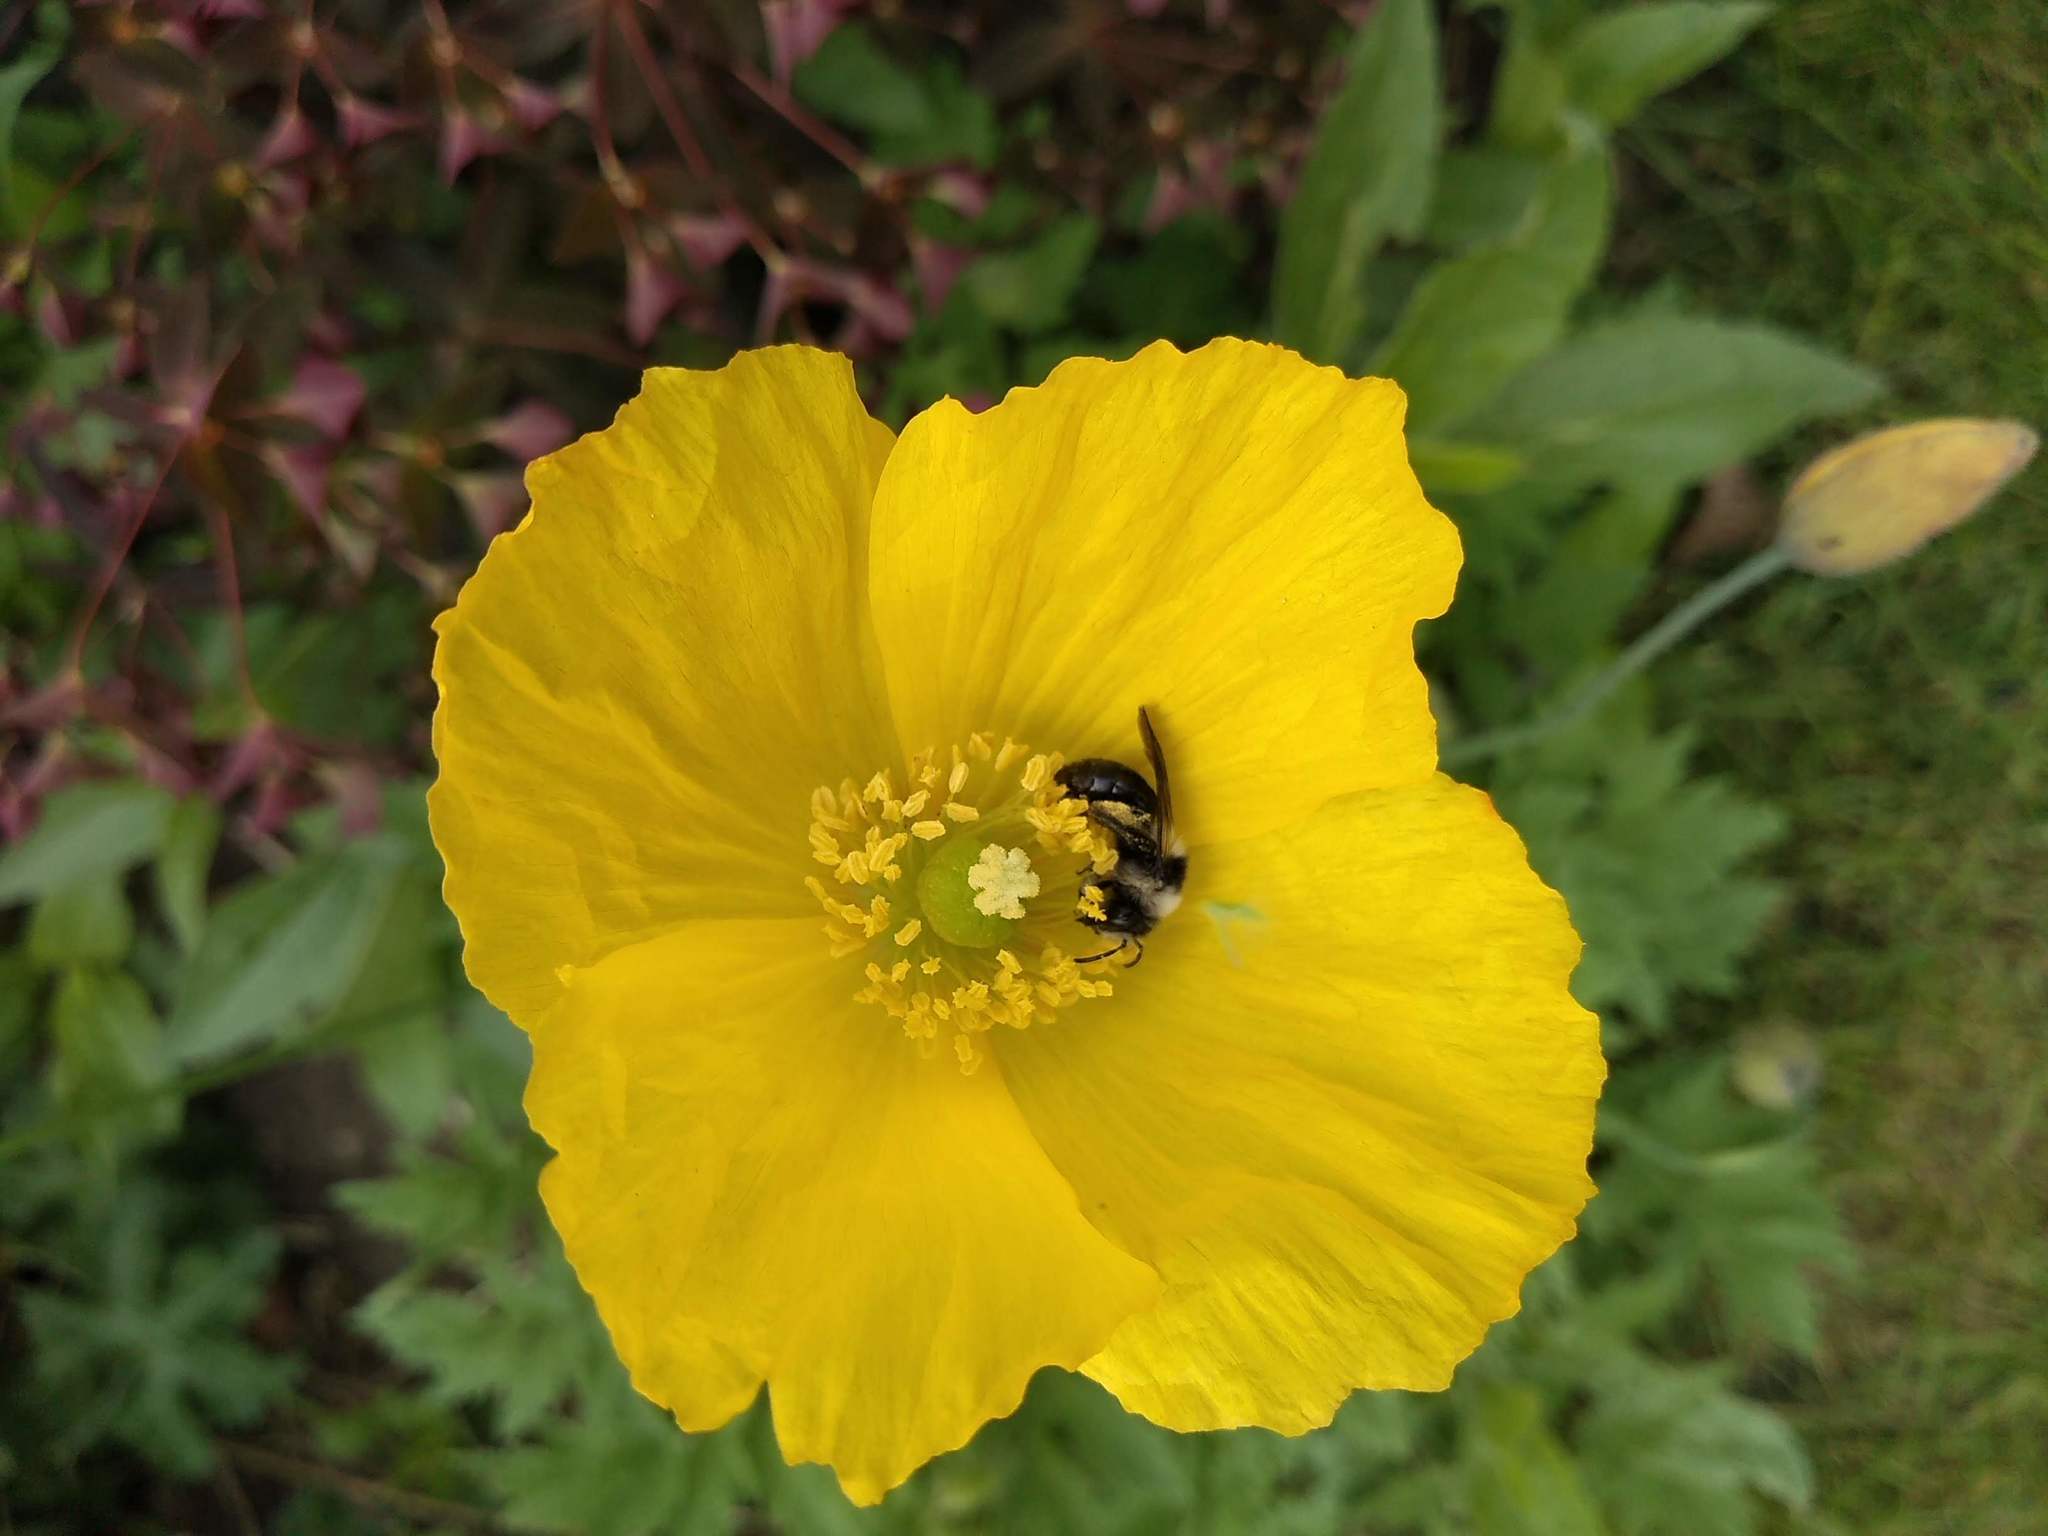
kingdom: Plantae
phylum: Tracheophyta
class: Magnoliopsida
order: Ranunculales
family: Papaveraceae
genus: Papaver
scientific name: Papaver cambricum
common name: Poppy
